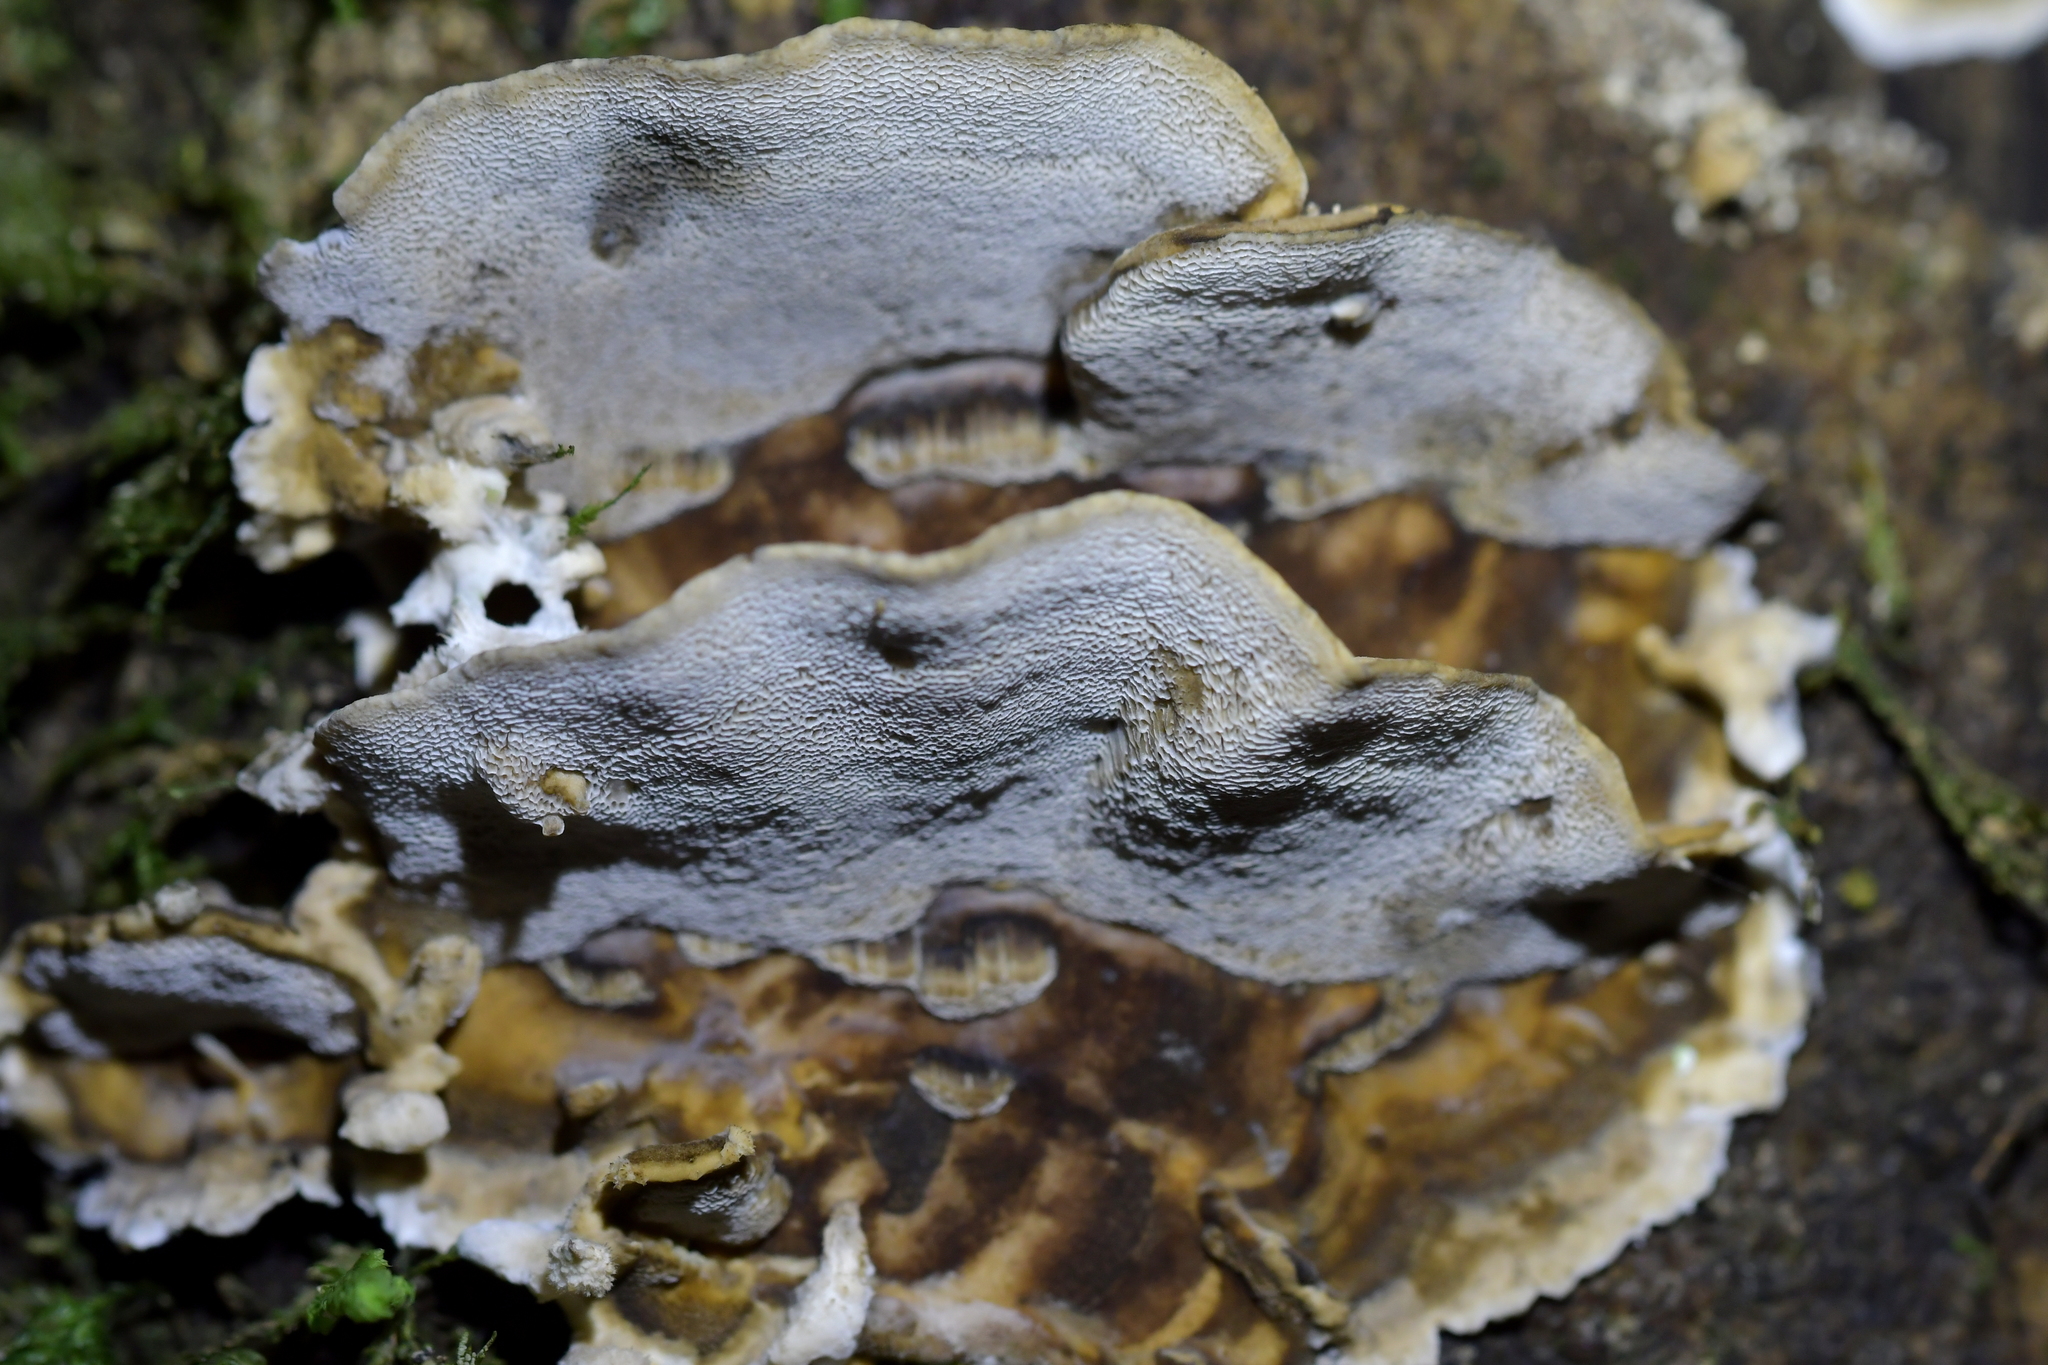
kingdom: Fungi
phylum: Basidiomycota
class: Agaricomycetes
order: Polyporales
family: Phanerochaetaceae
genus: Bjerkandera
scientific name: Bjerkandera adusta
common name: Smoky bracket
